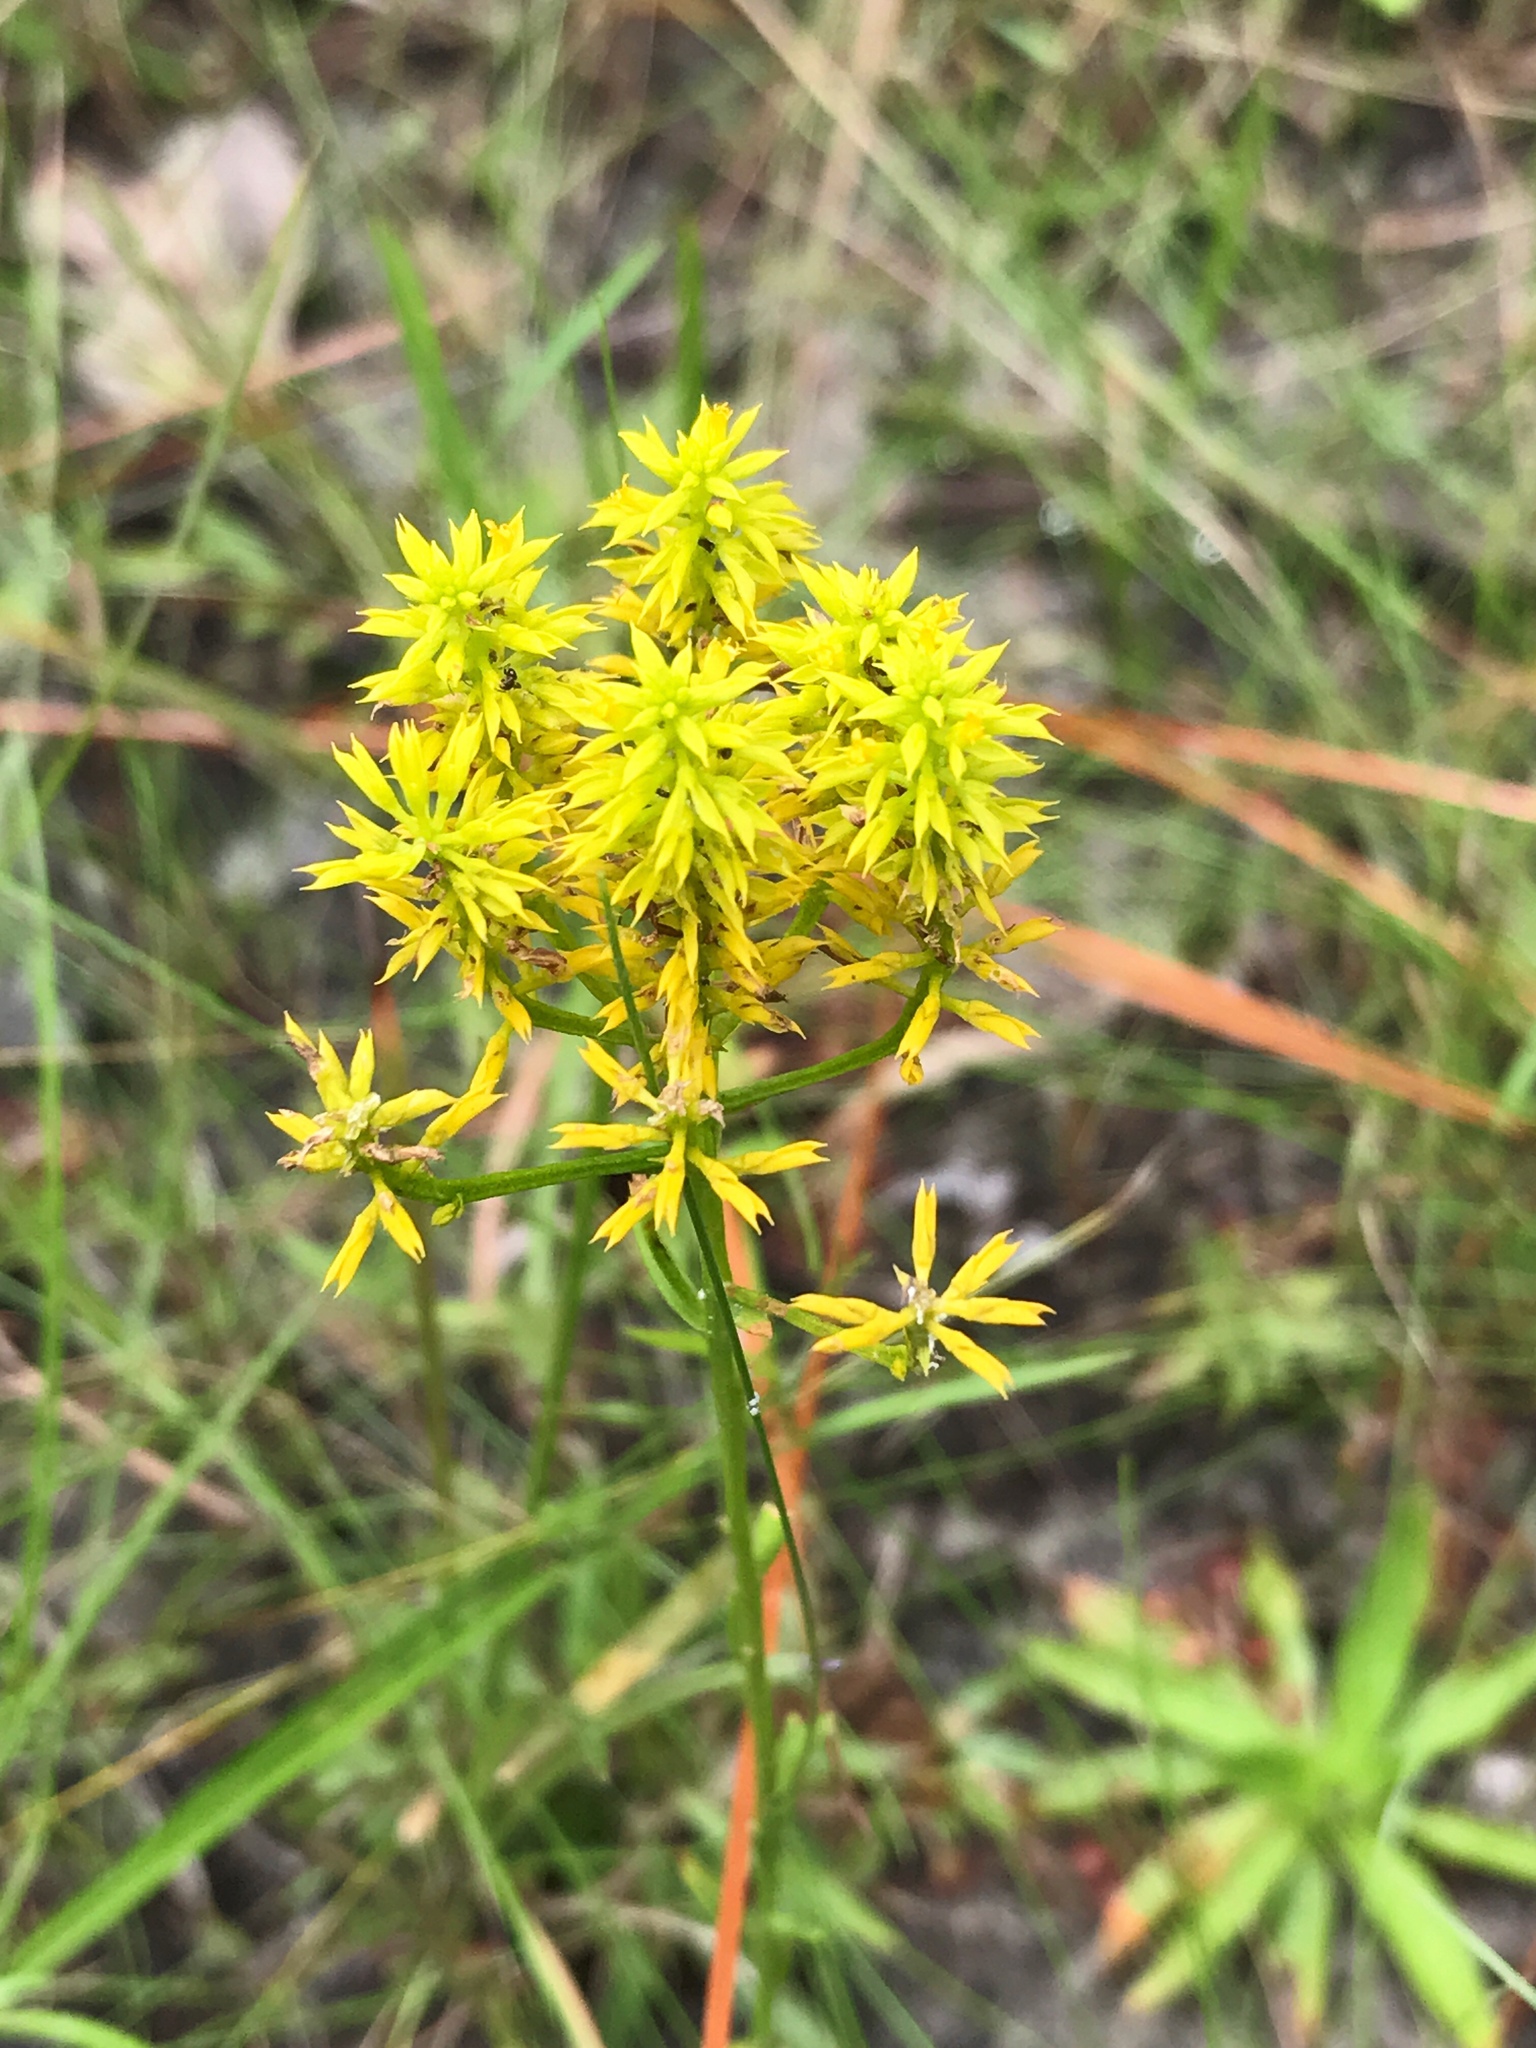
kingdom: Plantae
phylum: Tracheophyta
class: Magnoliopsida
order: Fabales
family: Polygalaceae
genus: Polygala
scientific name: Polygala ramosa
